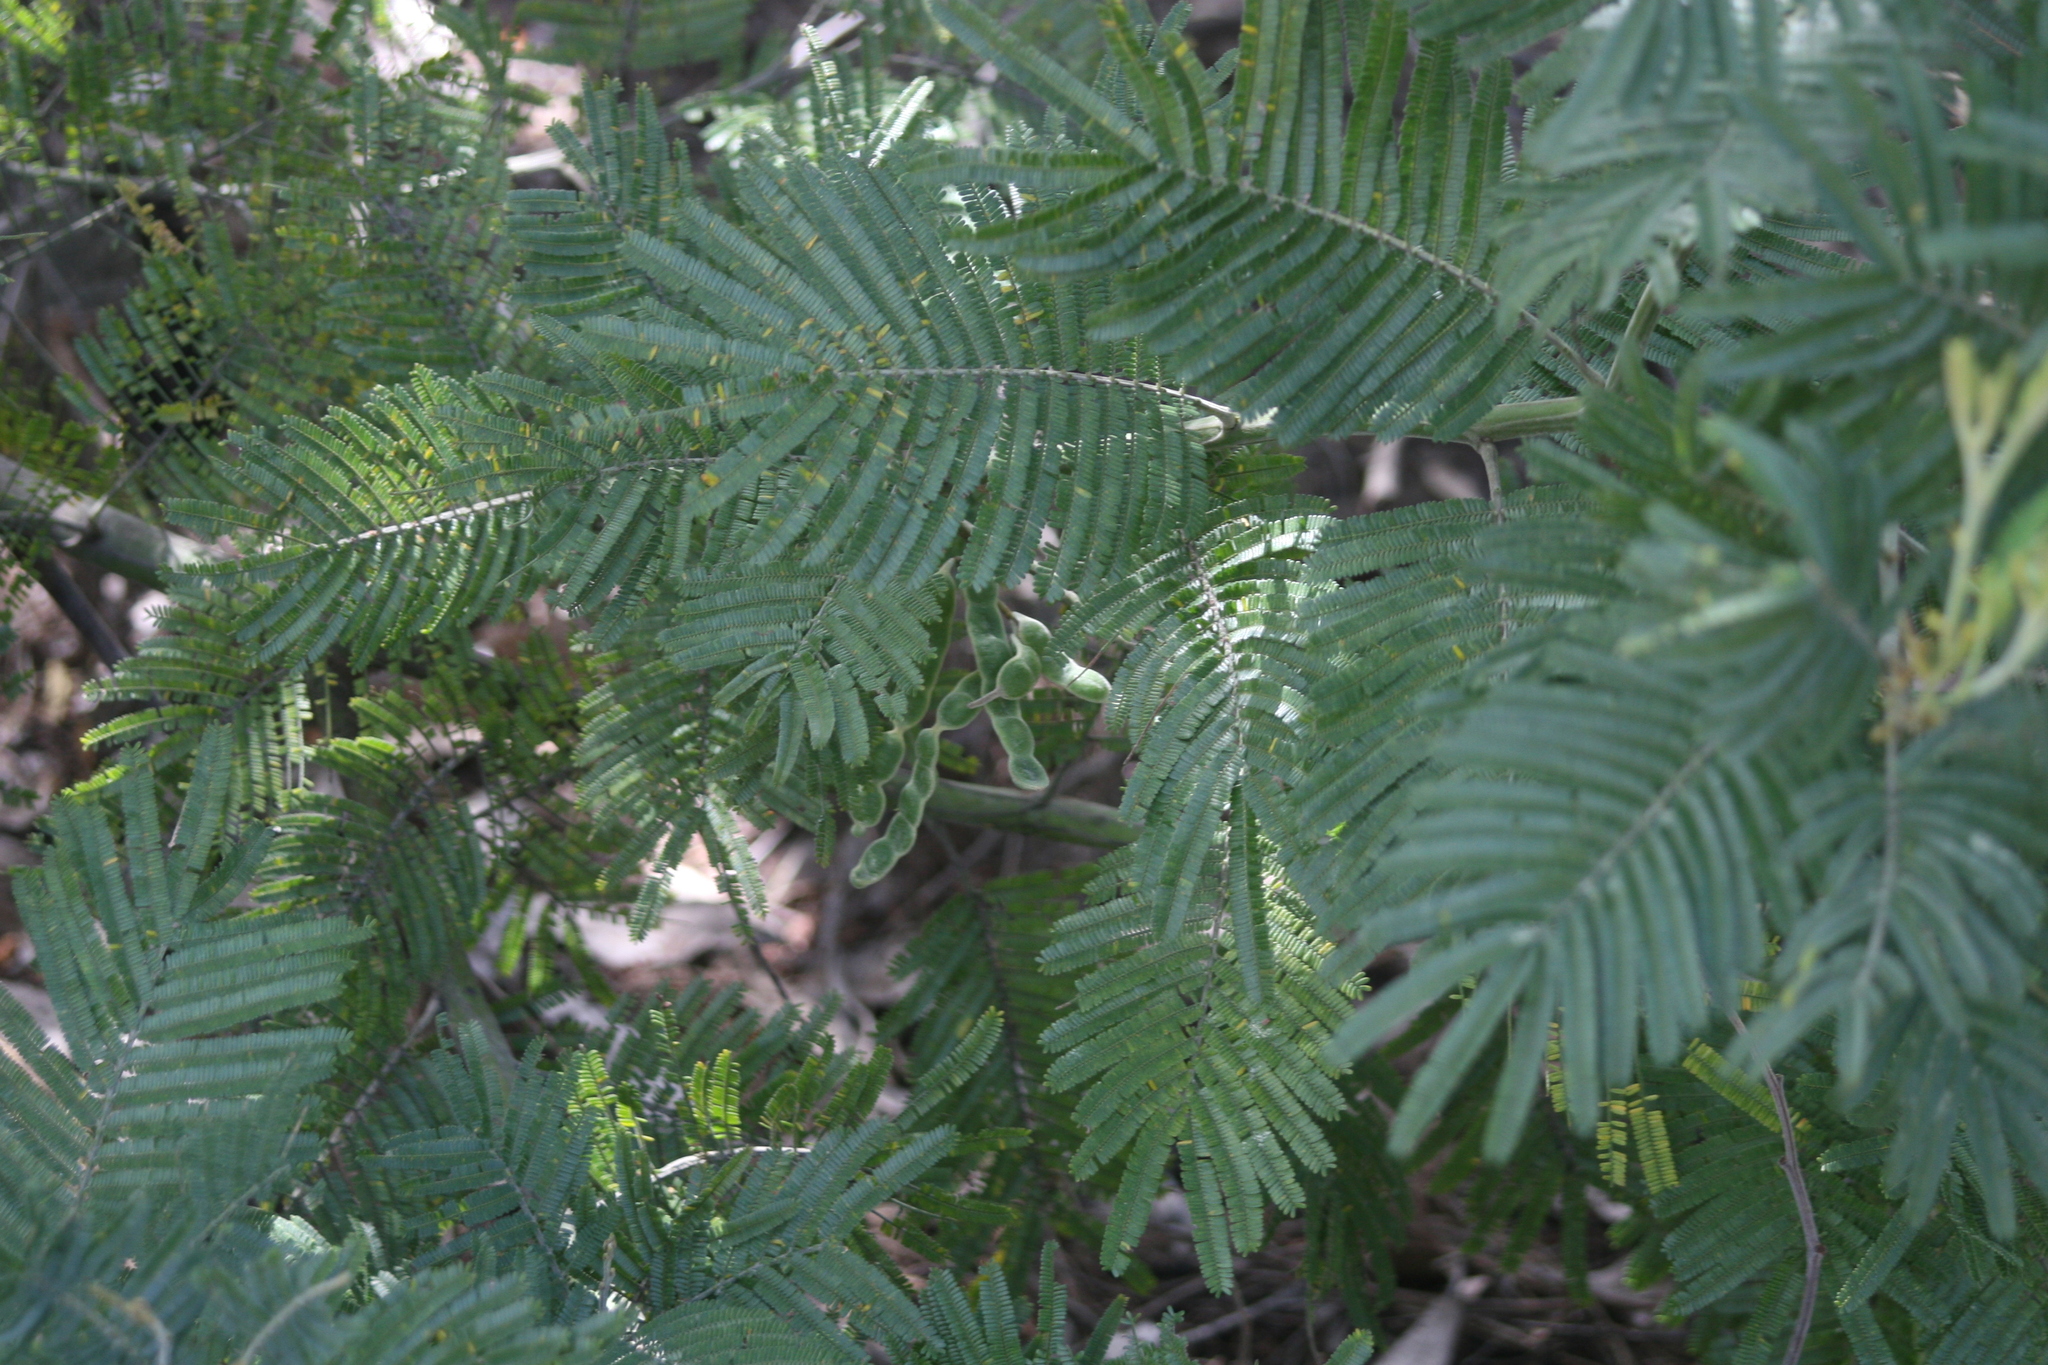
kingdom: Plantae
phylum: Tracheophyta
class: Magnoliopsida
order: Fabales
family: Fabaceae
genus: Acacia
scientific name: Acacia dealbata
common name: Silver wattle
